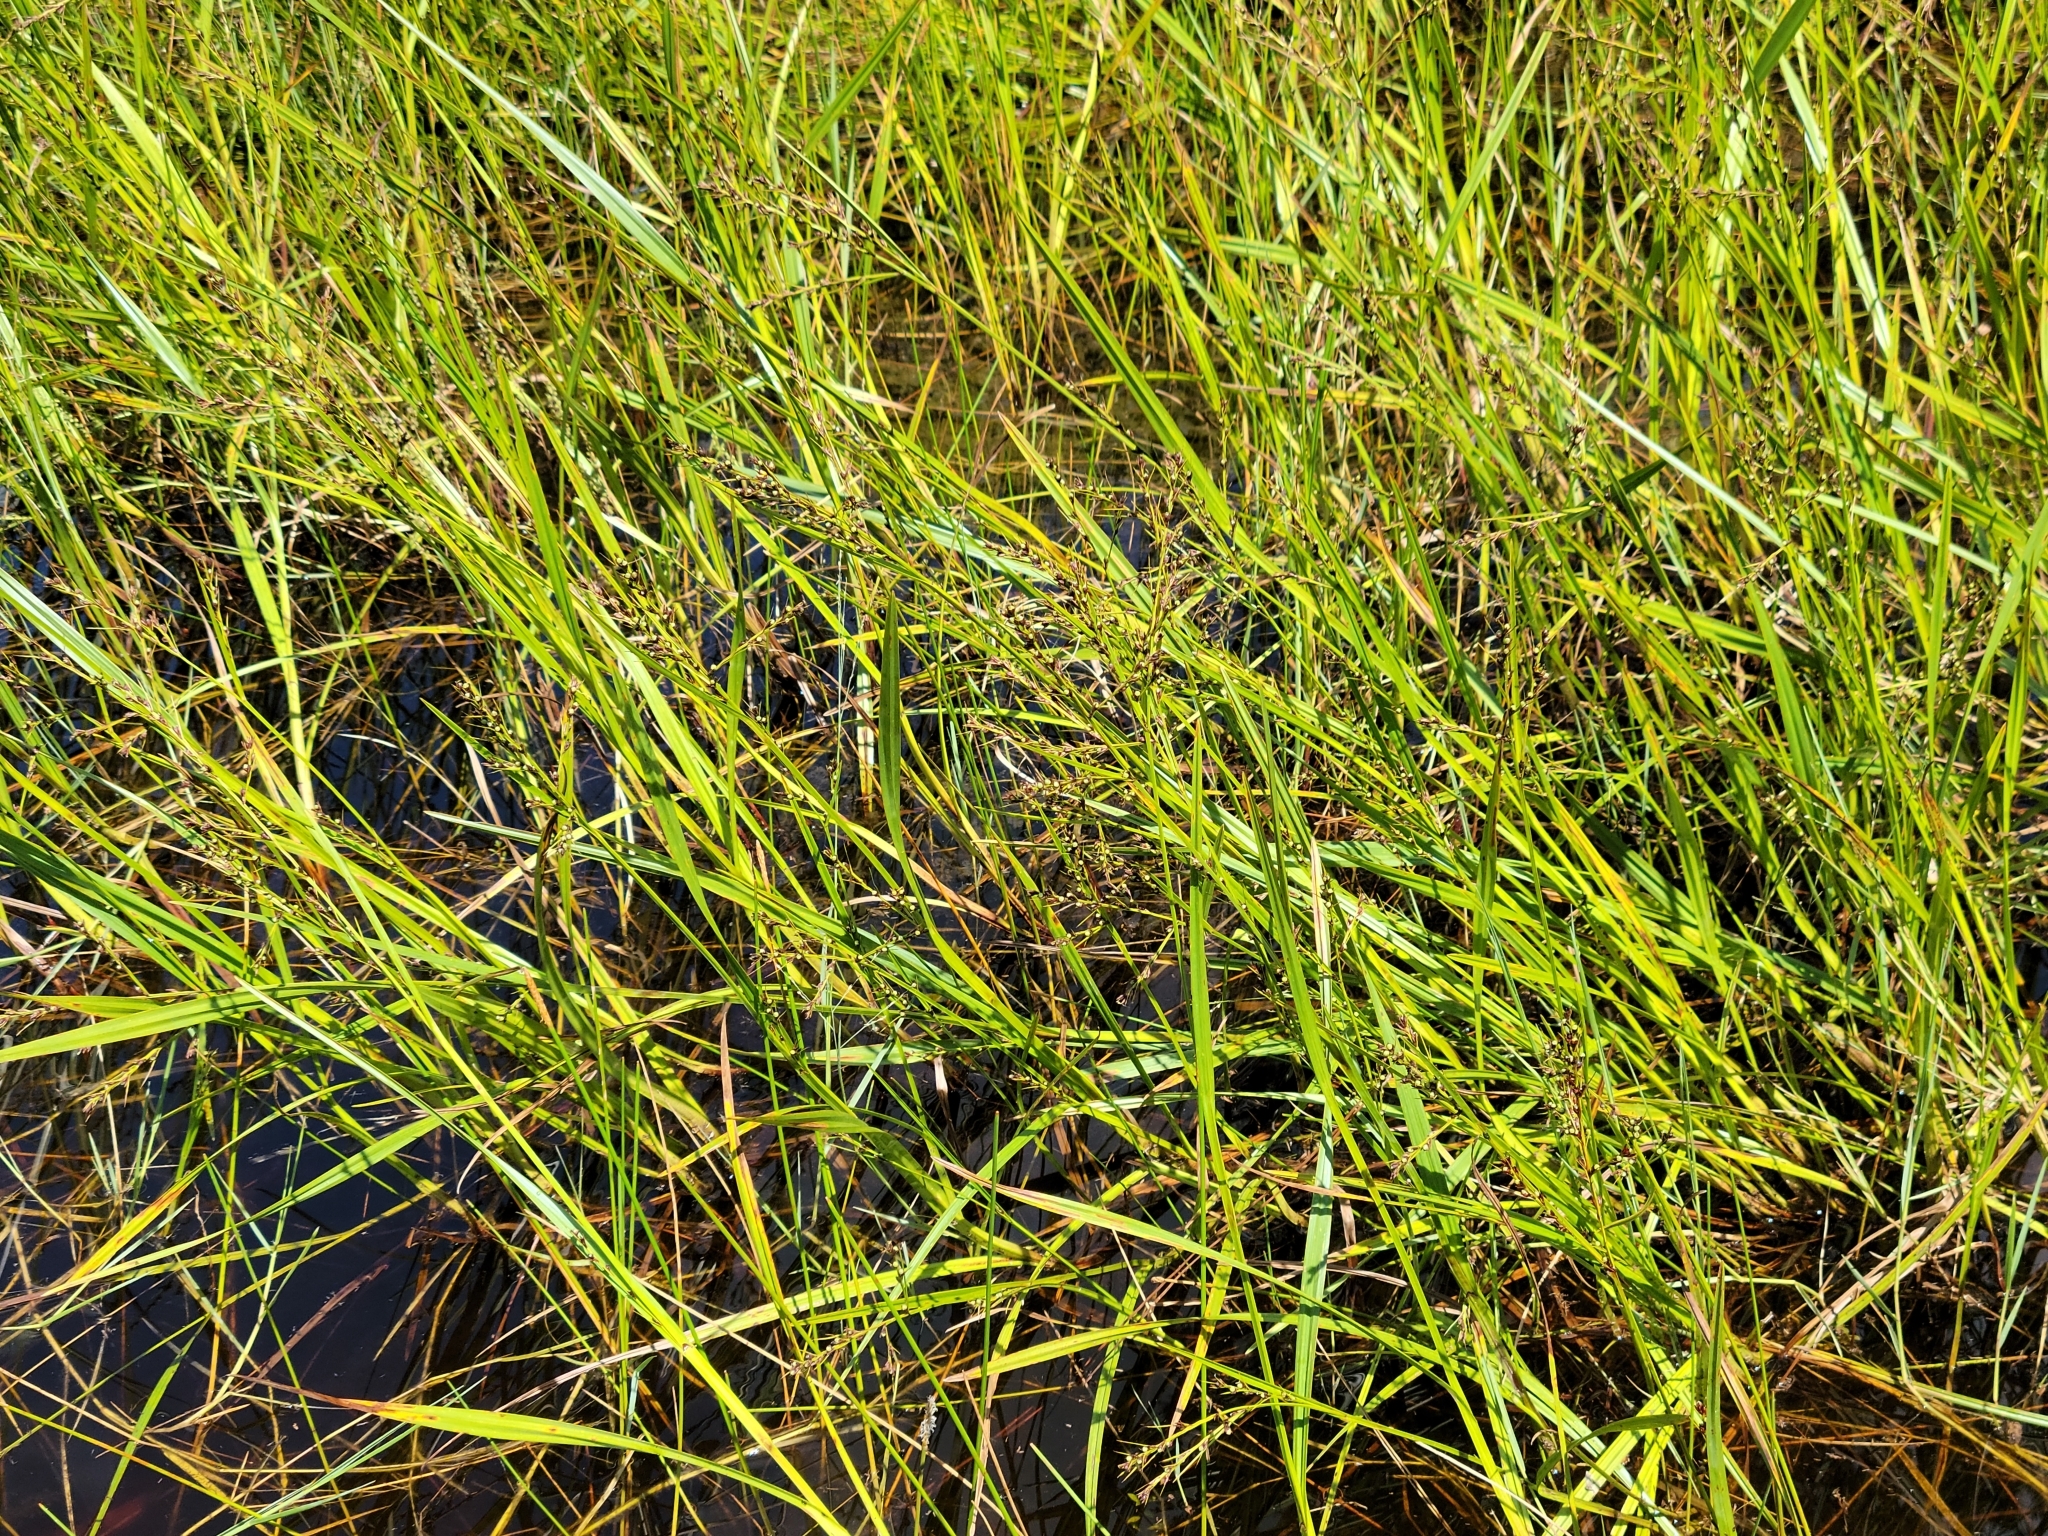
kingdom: Plantae
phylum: Tracheophyta
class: Liliopsida
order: Poales
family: Cyperaceae
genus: Scleria
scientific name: Scleria lacustris
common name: Lakeshore nutrush
